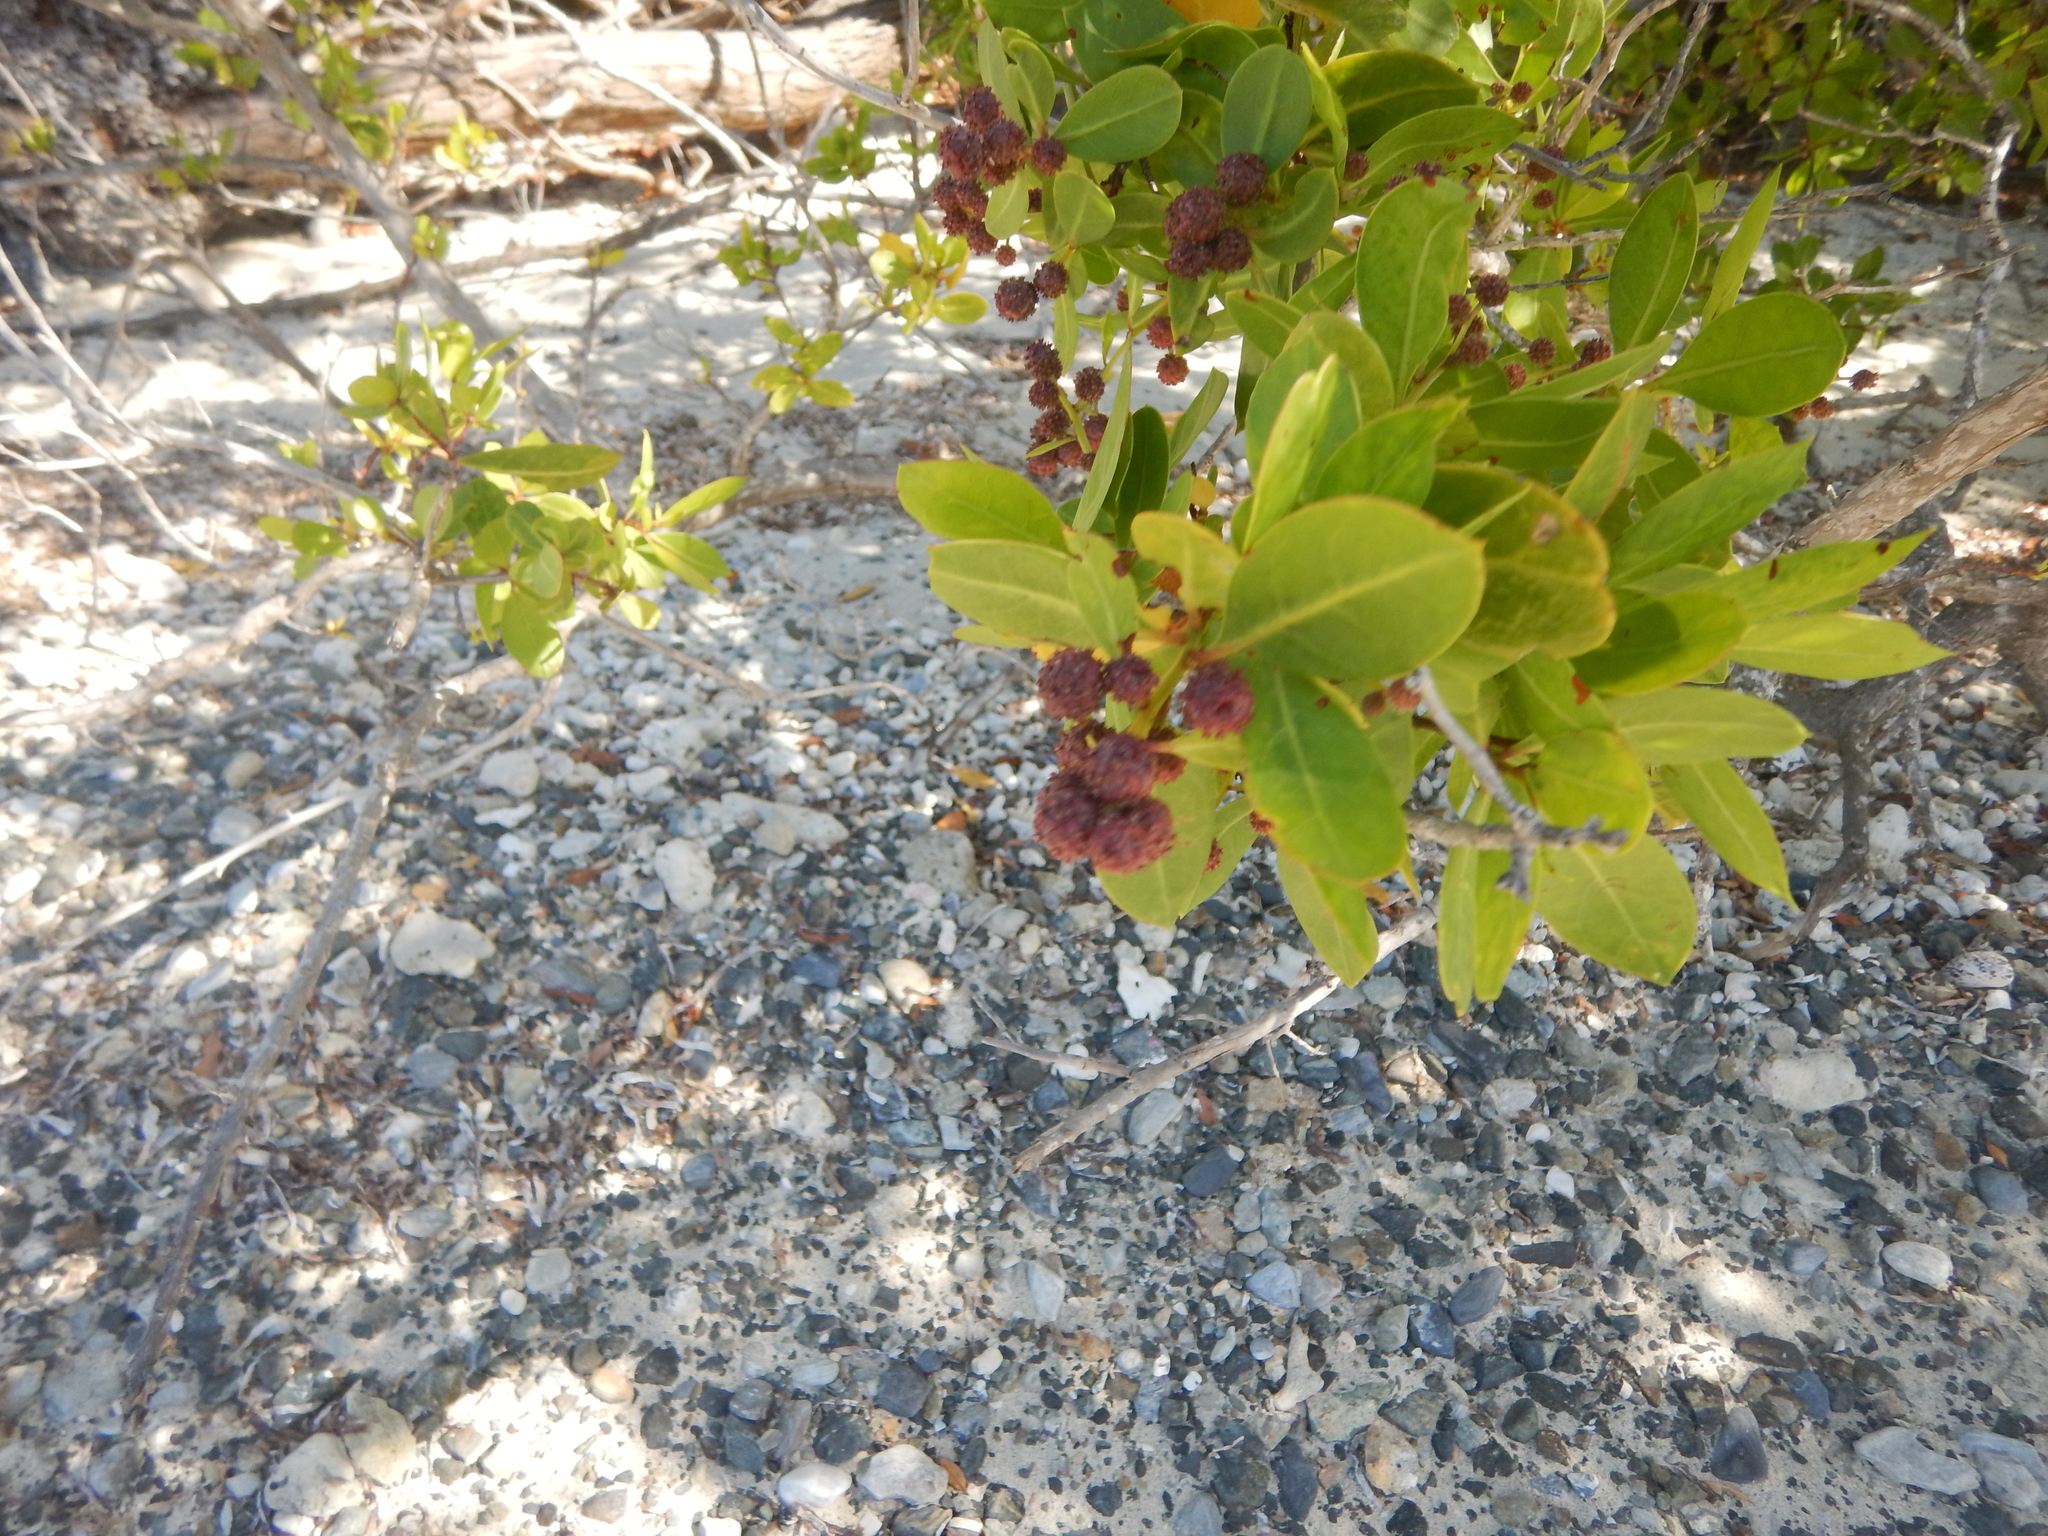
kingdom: Plantae
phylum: Tracheophyta
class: Magnoliopsida
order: Myrtales
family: Combretaceae
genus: Conocarpus
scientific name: Conocarpus erectus
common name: Button mangrove
